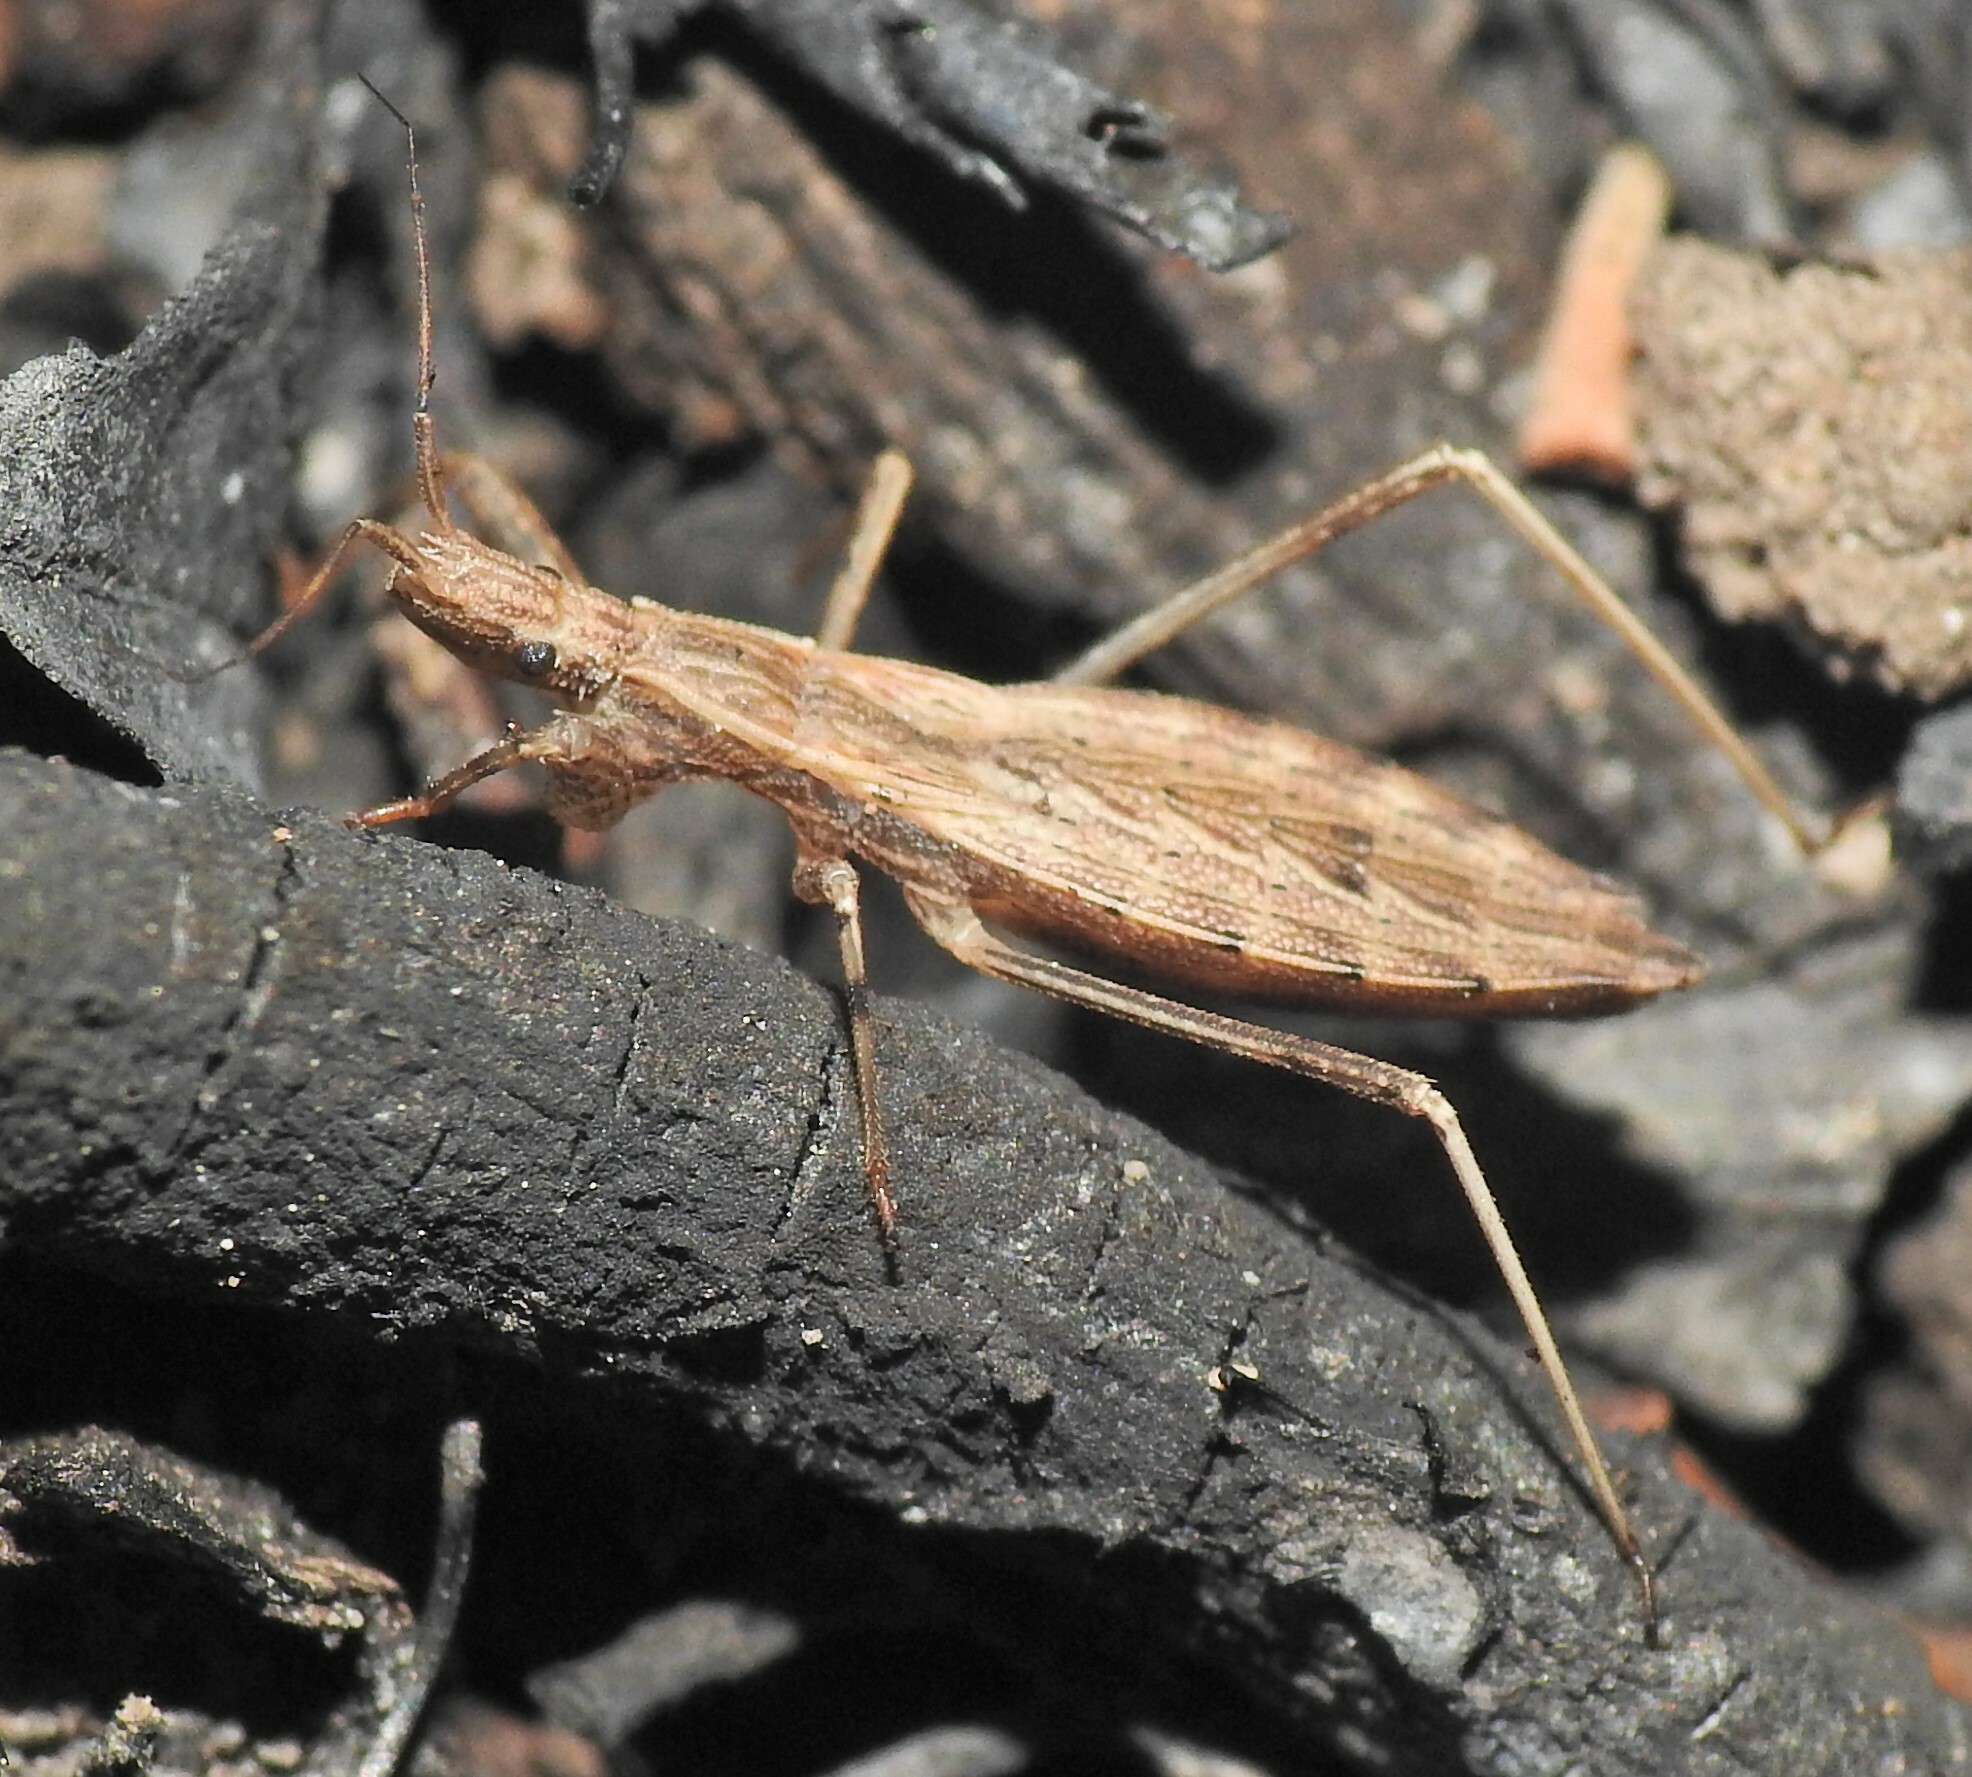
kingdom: Animalia
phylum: Arthropoda
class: Insecta
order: Hemiptera
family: Reduviidae
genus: Sastrapada
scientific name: Sastrapada australica
